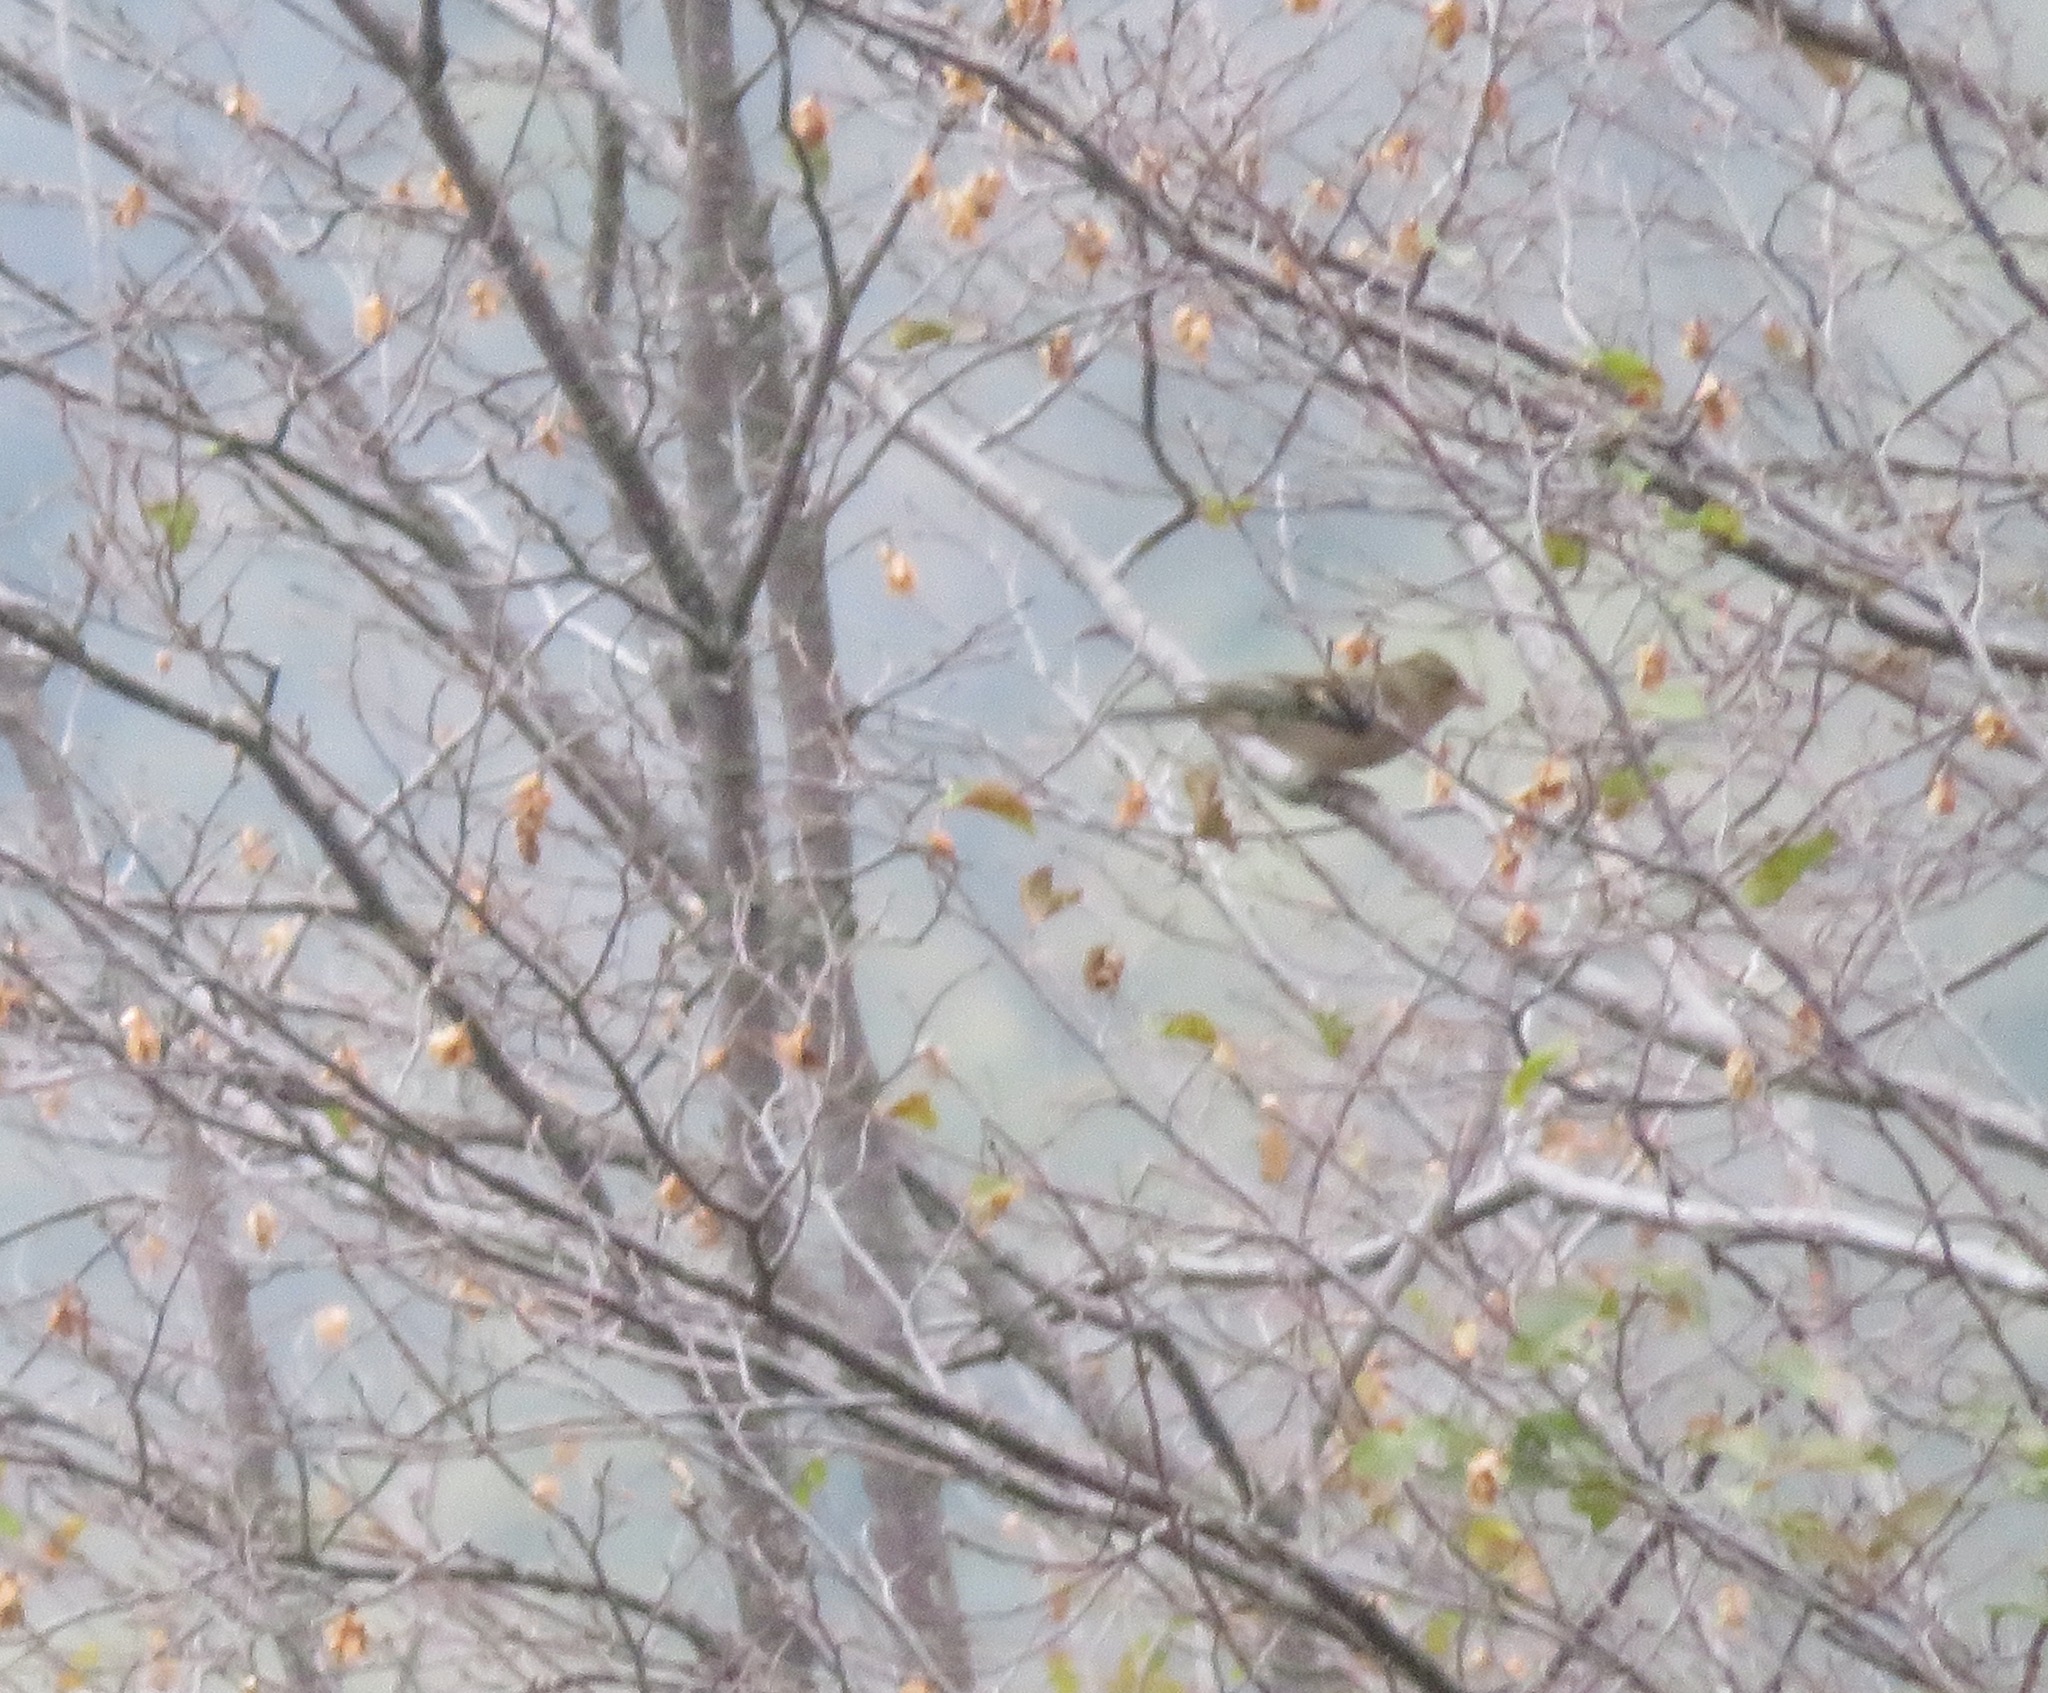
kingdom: Animalia
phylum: Chordata
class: Aves
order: Passeriformes
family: Fringillidae
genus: Fringilla
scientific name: Fringilla coelebs
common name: Common chaffinch
